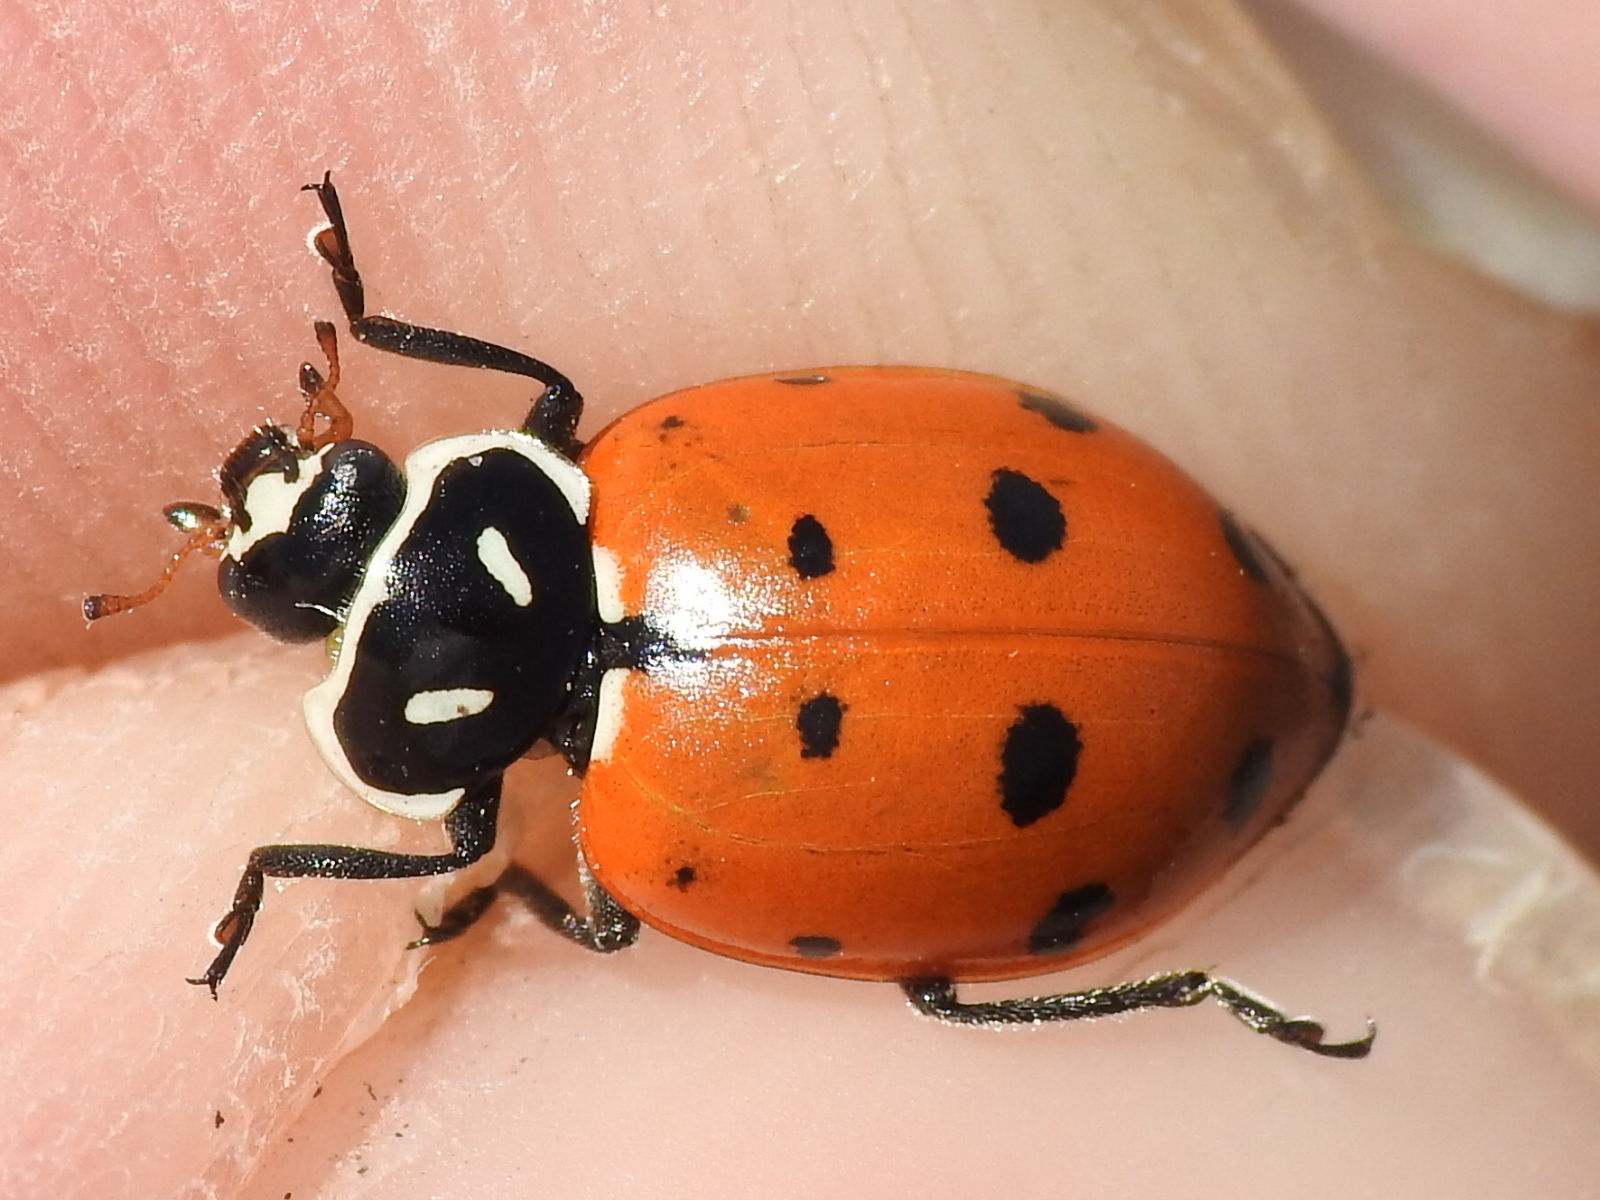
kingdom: Animalia
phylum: Arthropoda
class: Insecta
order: Coleoptera
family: Coccinellidae
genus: Hippodamia
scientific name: Hippodamia convergens
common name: Convergent lady beetle
